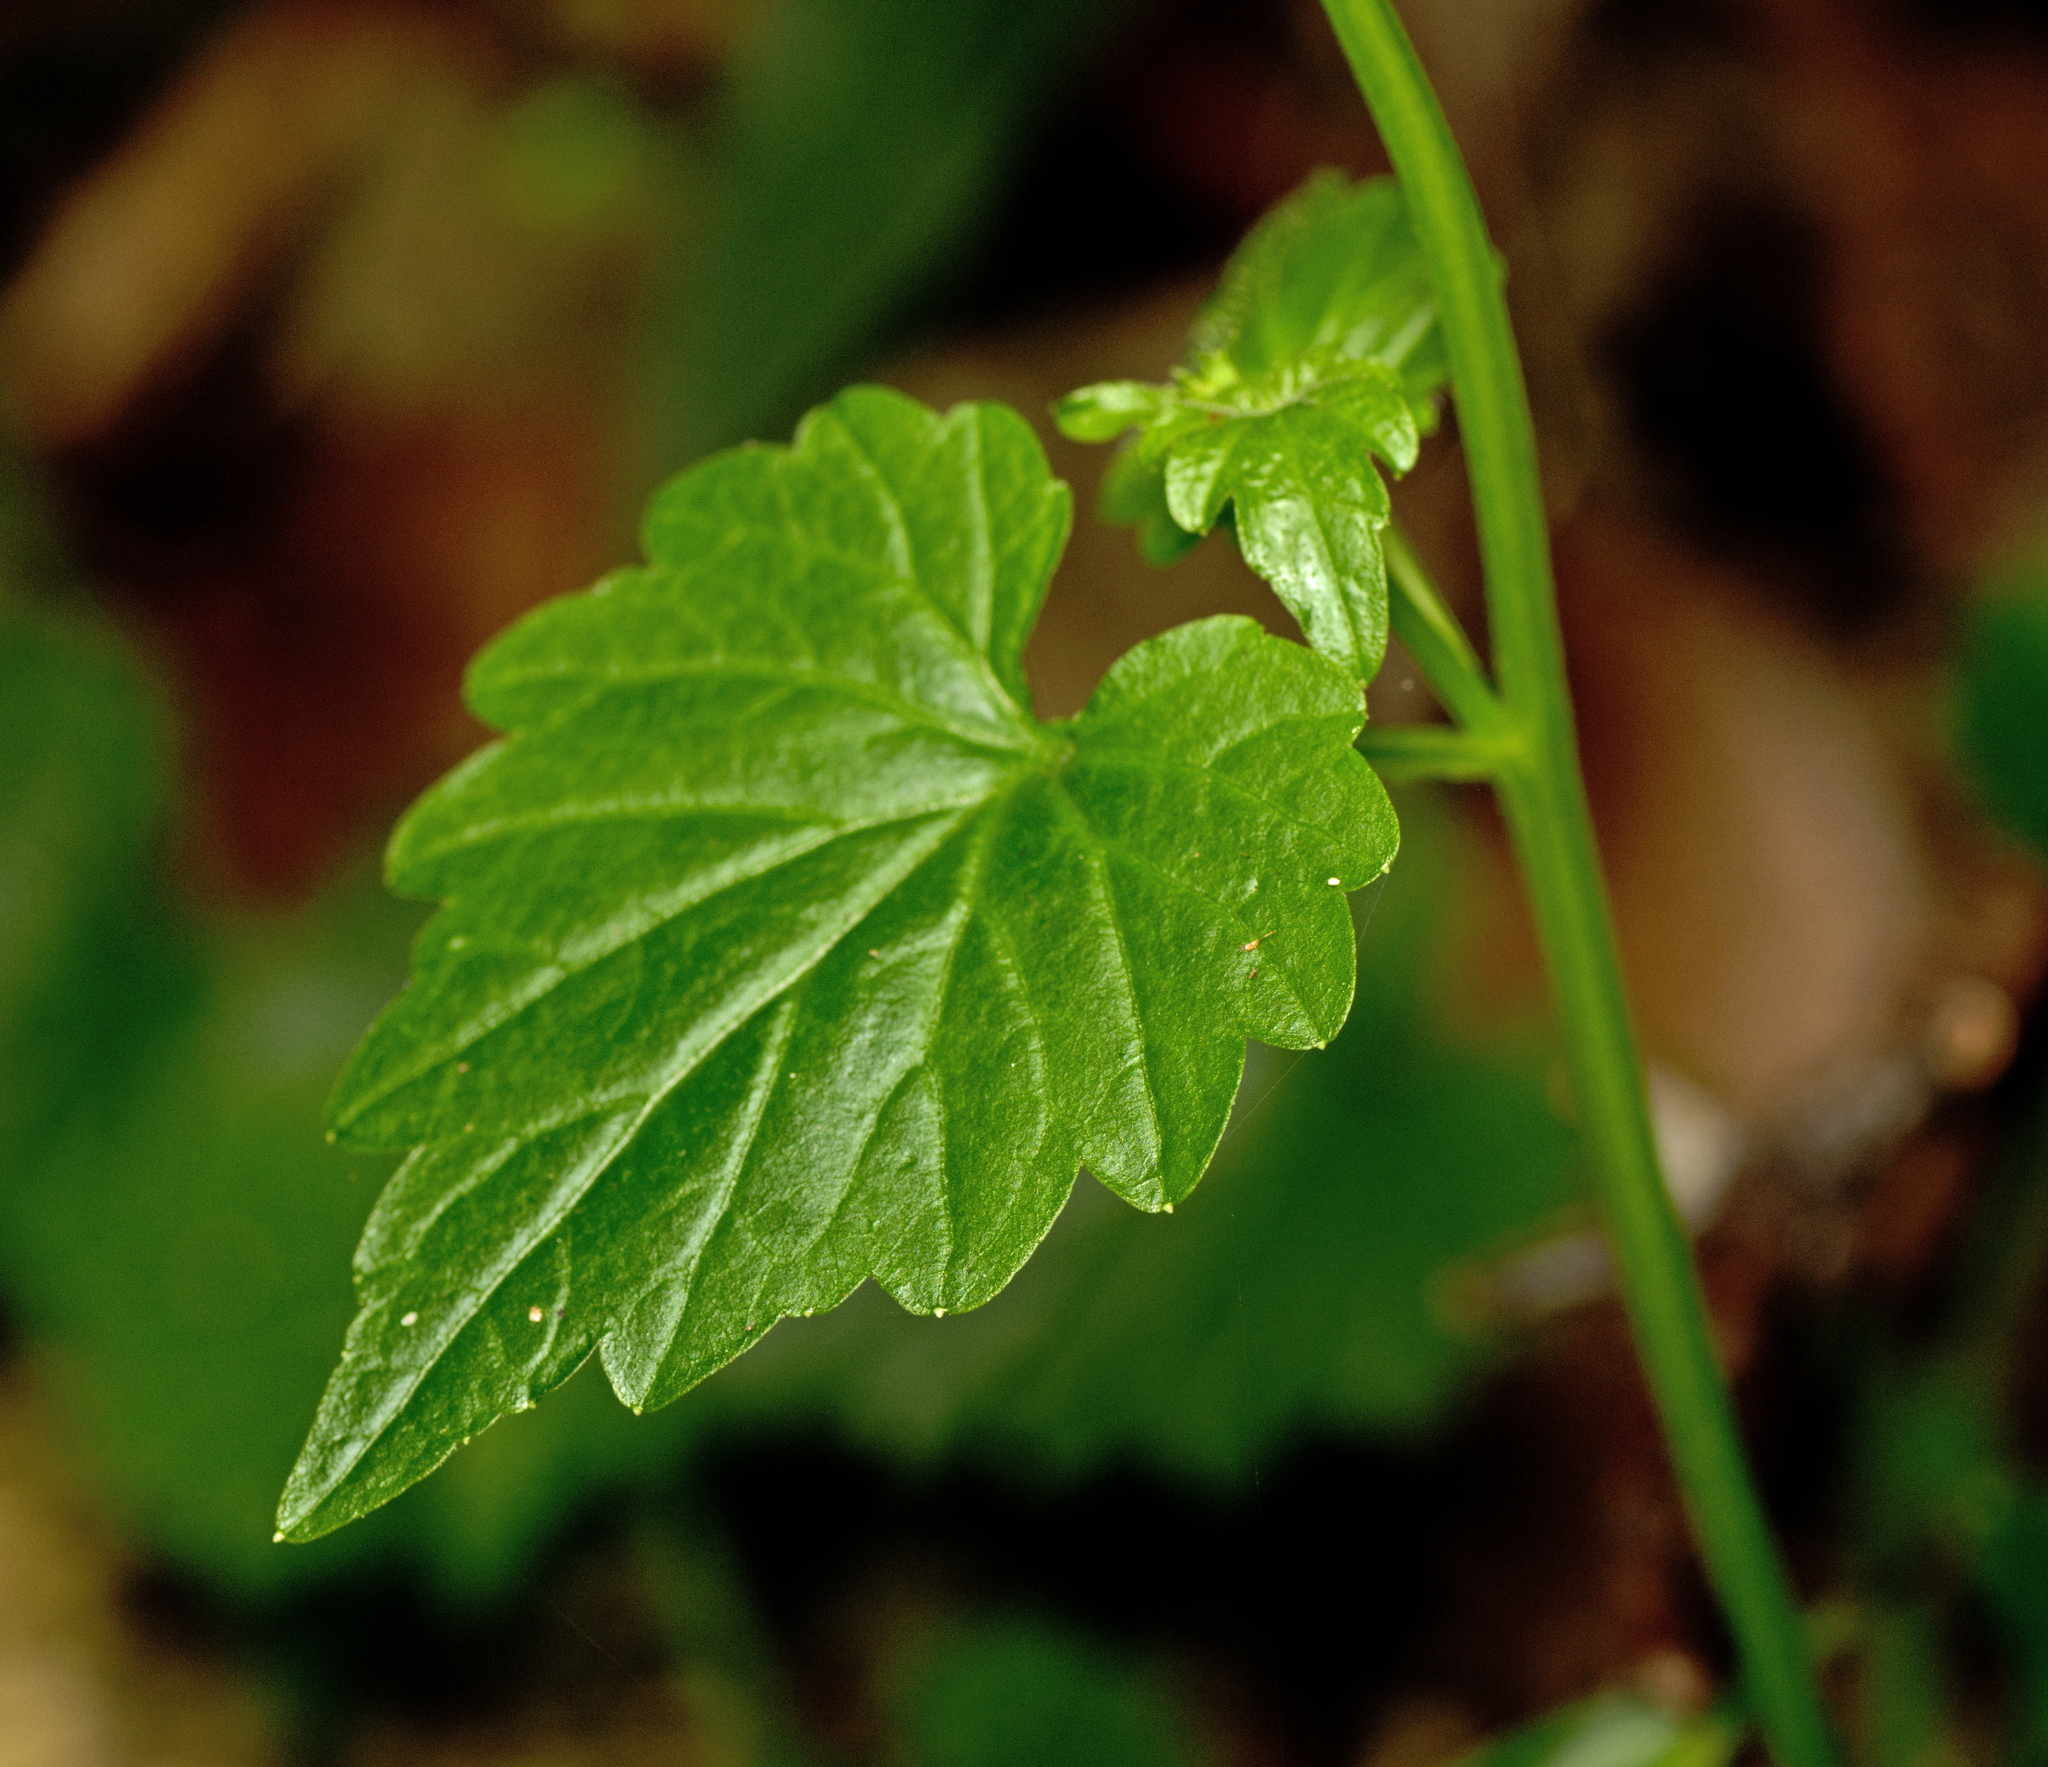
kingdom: Plantae
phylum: Tracheophyta
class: Magnoliopsida
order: Asterales
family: Campanulaceae
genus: Lobelia
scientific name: Lobelia trigonocaulis
